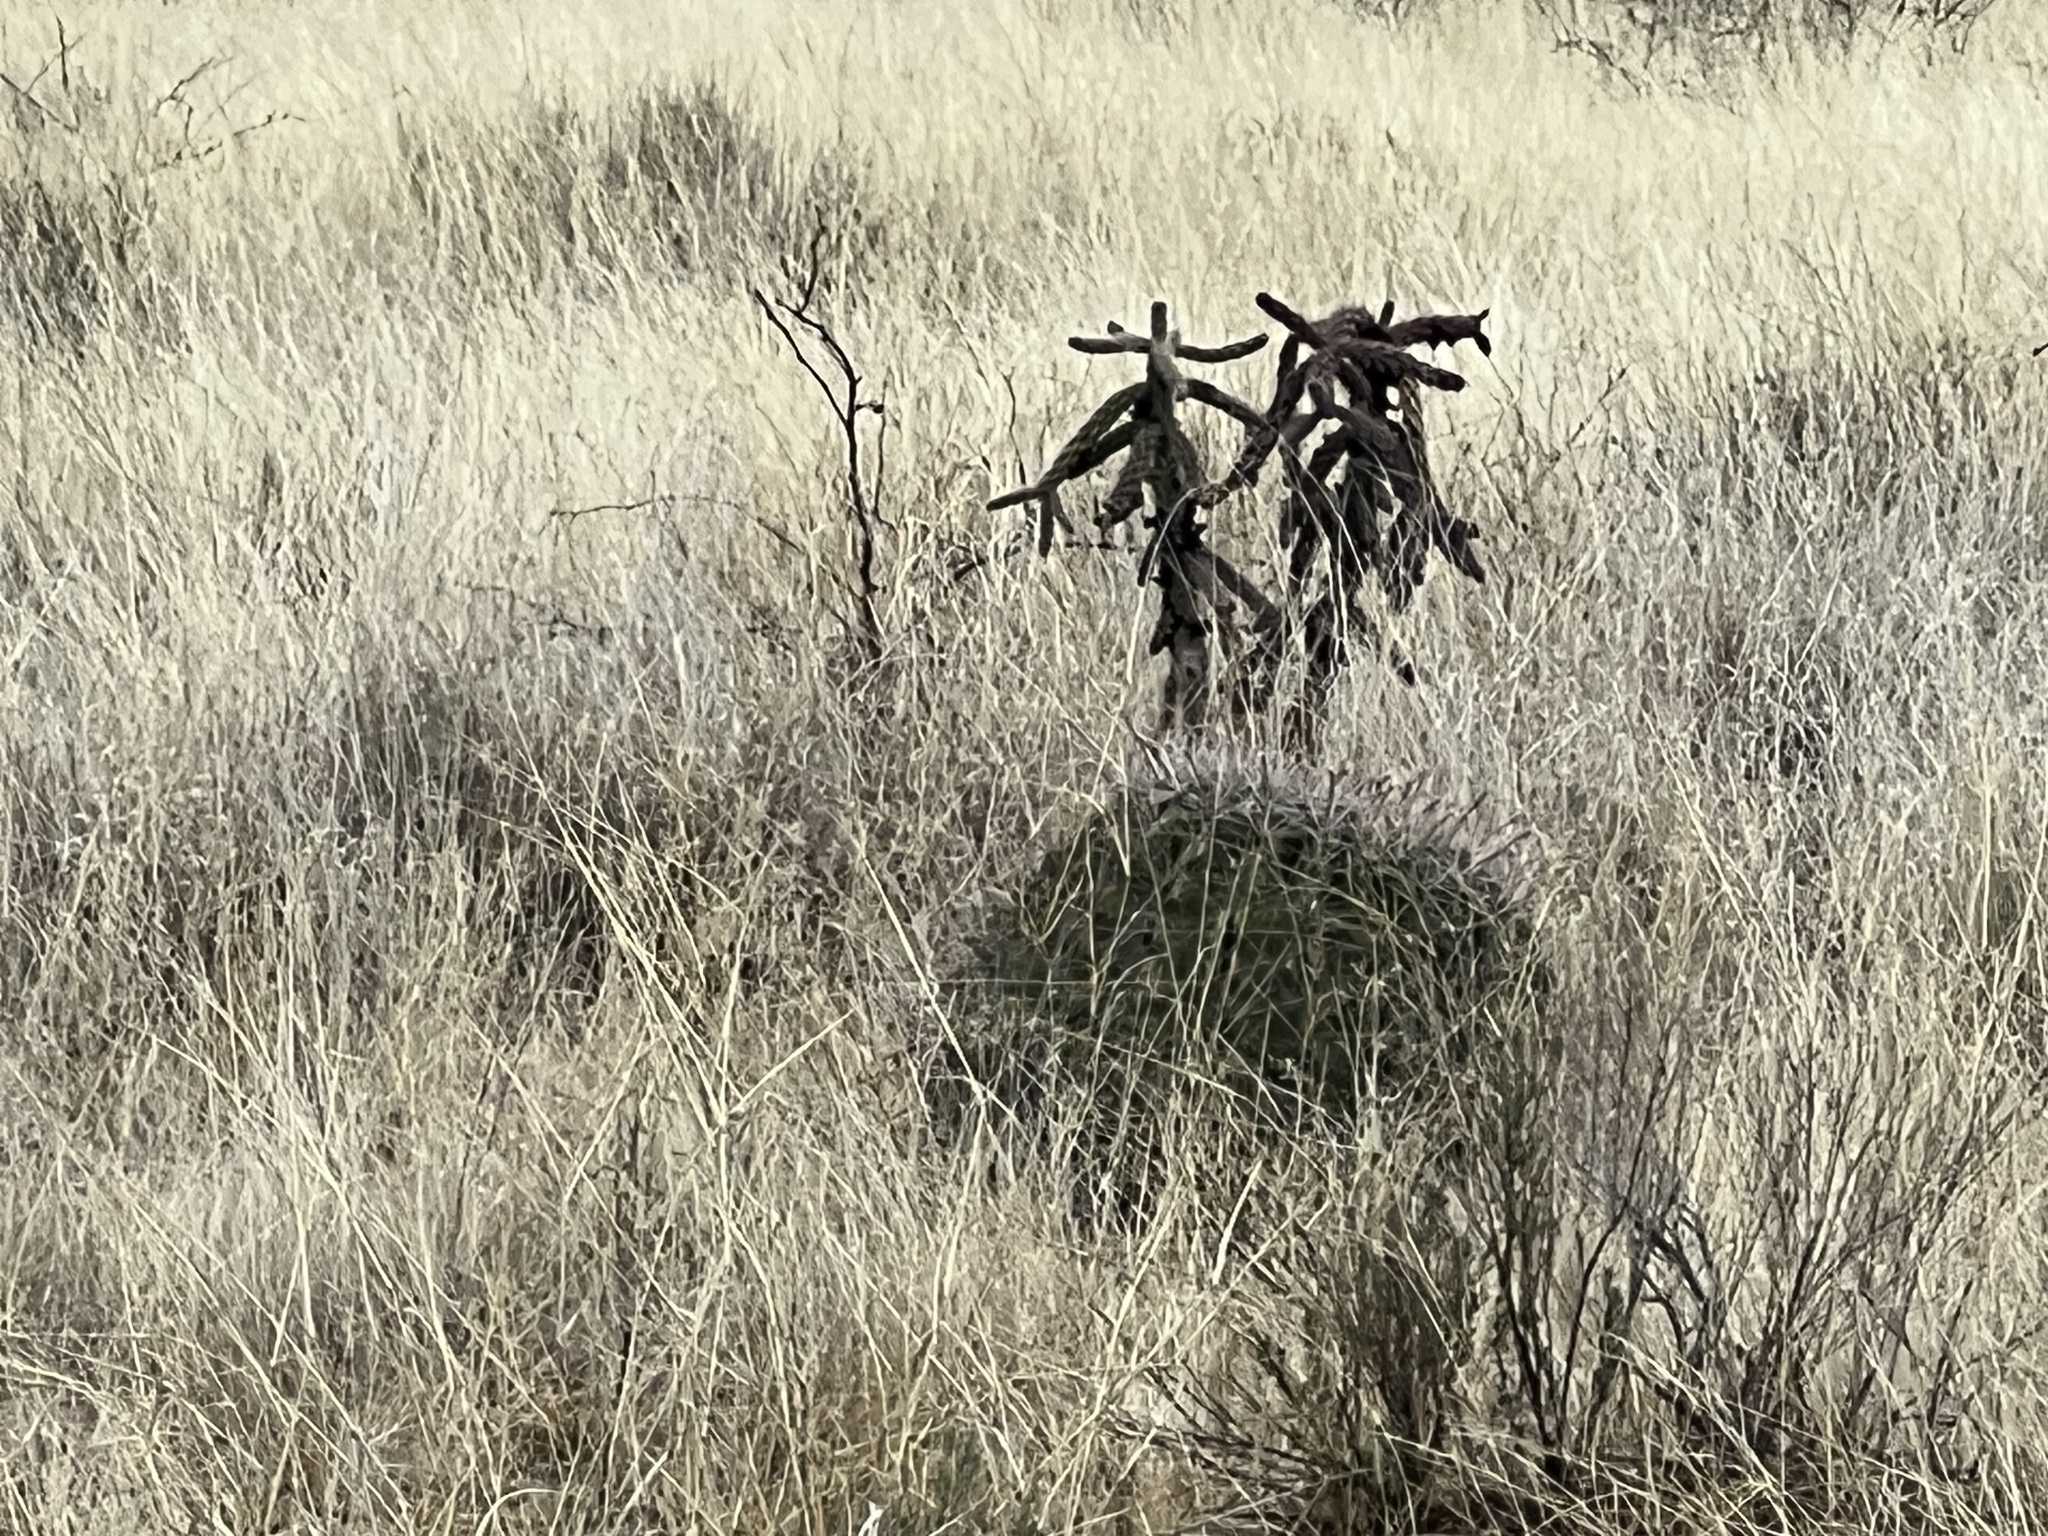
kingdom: Plantae
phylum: Tracheophyta
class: Magnoliopsida
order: Caryophyllales
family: Cactaceae
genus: Ferocactus
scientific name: Ferocactus wislizeni
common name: Candy barrel cactus
